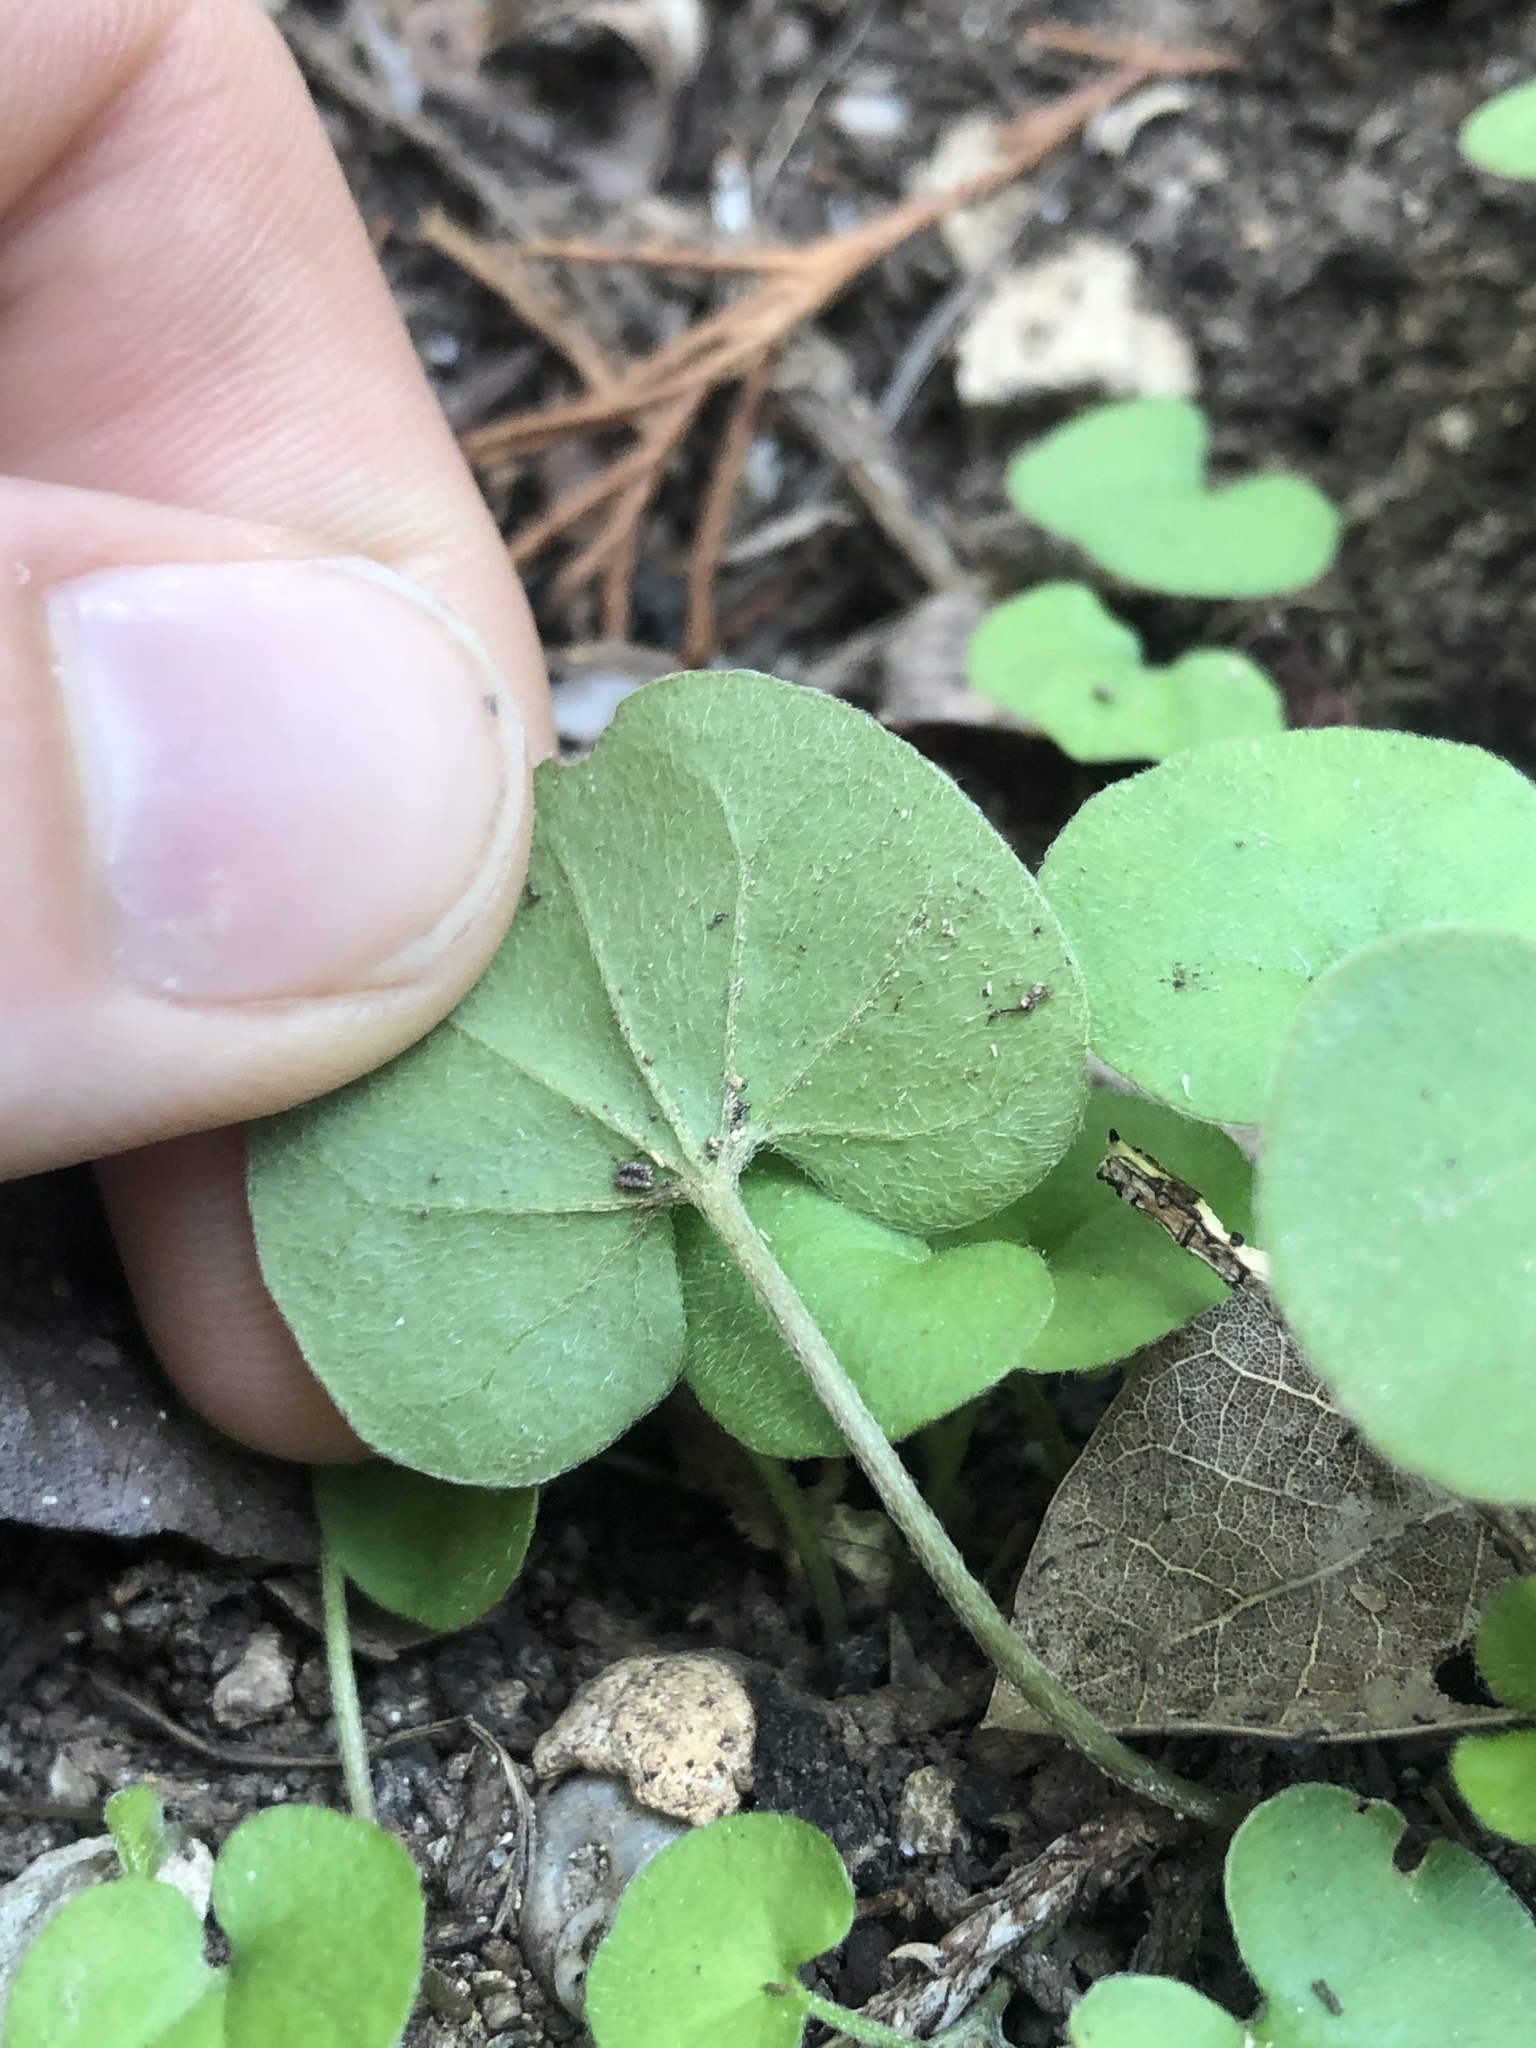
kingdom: Plantae
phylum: Tracheophyta
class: Magnoliopsida
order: Solanales
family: Convolvulaceae
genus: Dichondra
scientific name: Dichondra carolinensis
